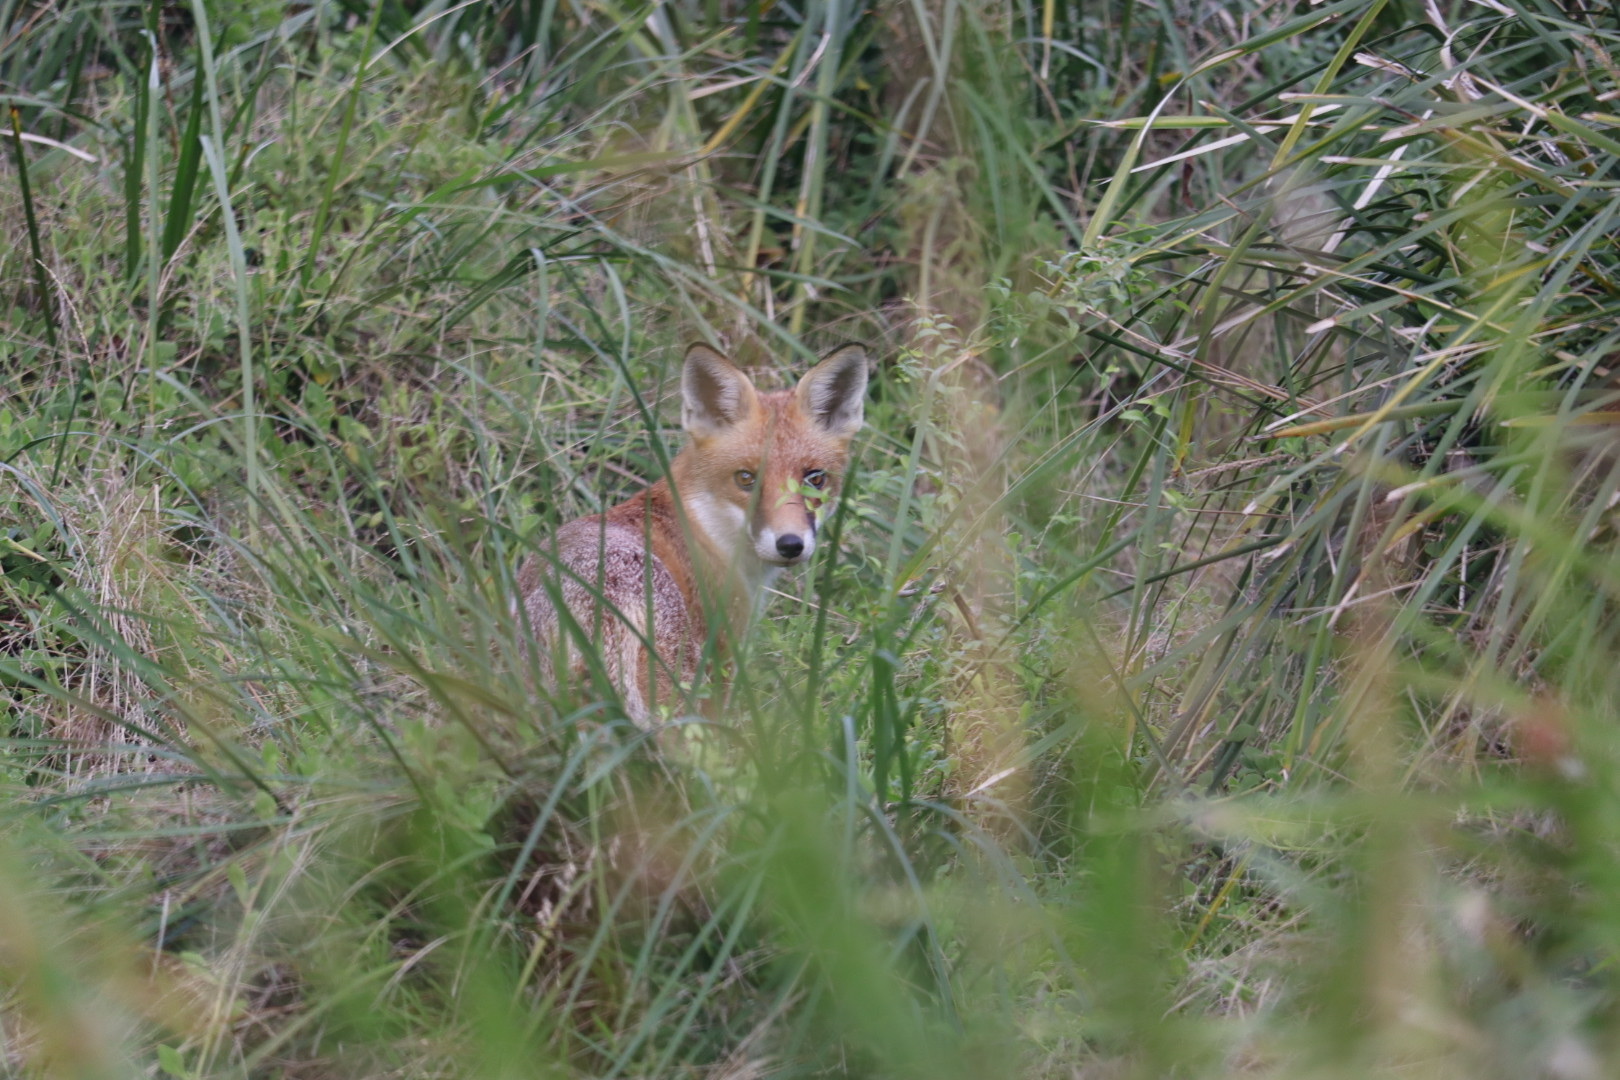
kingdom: Animalia
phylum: Chordata
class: Mammalia
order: Carnivora
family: Canidae
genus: Vulpes
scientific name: Vulpes vulpes
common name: Red fox
